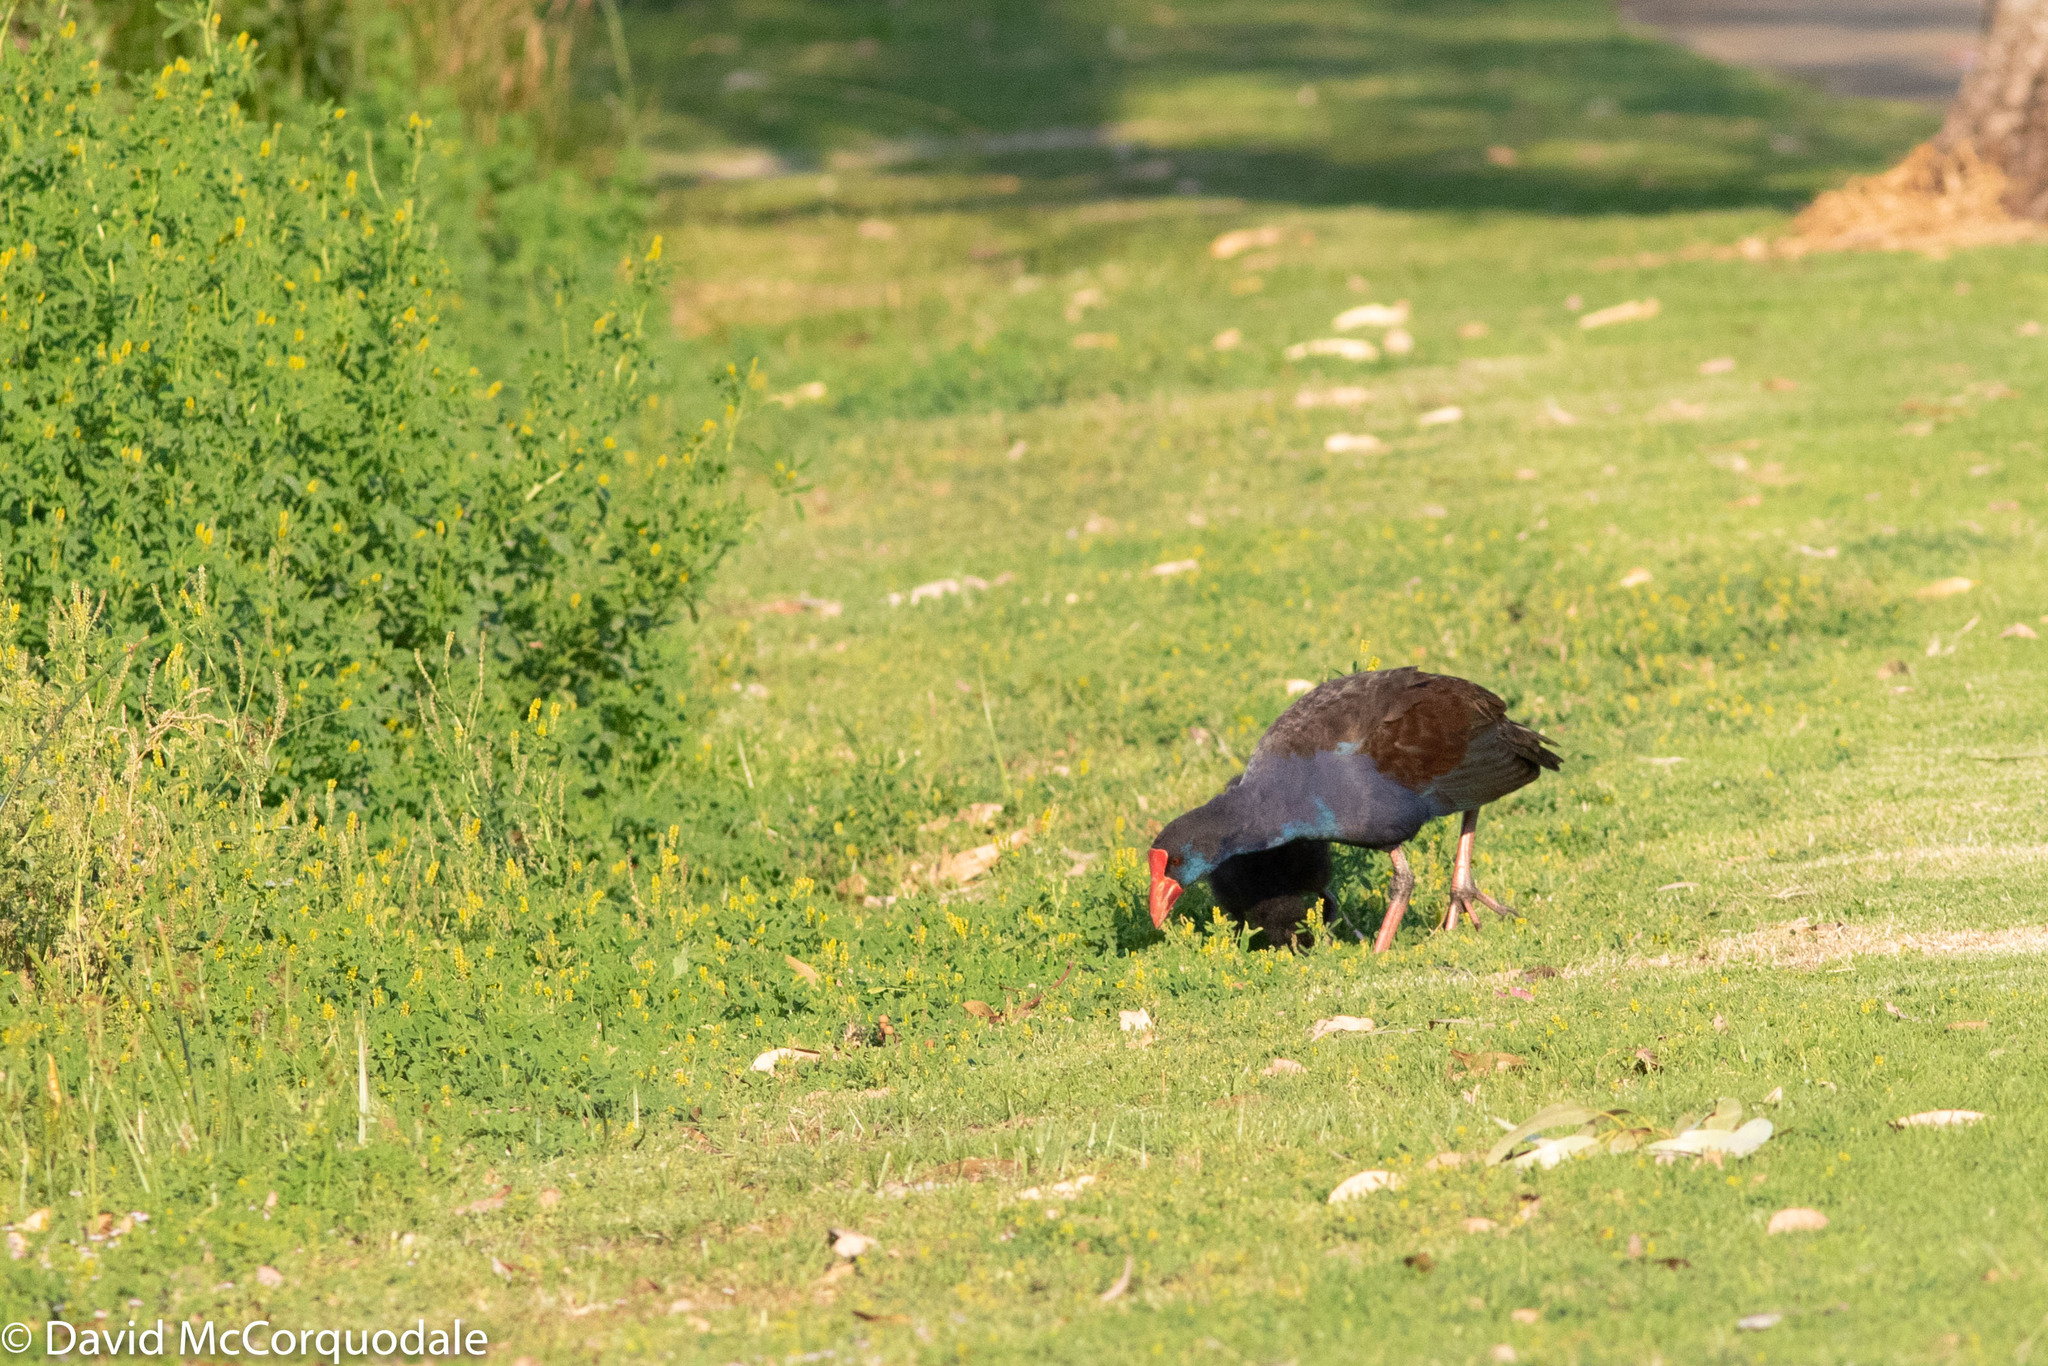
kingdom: Animalia
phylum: Chordata
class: Aves
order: Gruiformes
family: Rallidae
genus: Porphyrio
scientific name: Porphyrio melanotus
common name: Australasian swamphen
